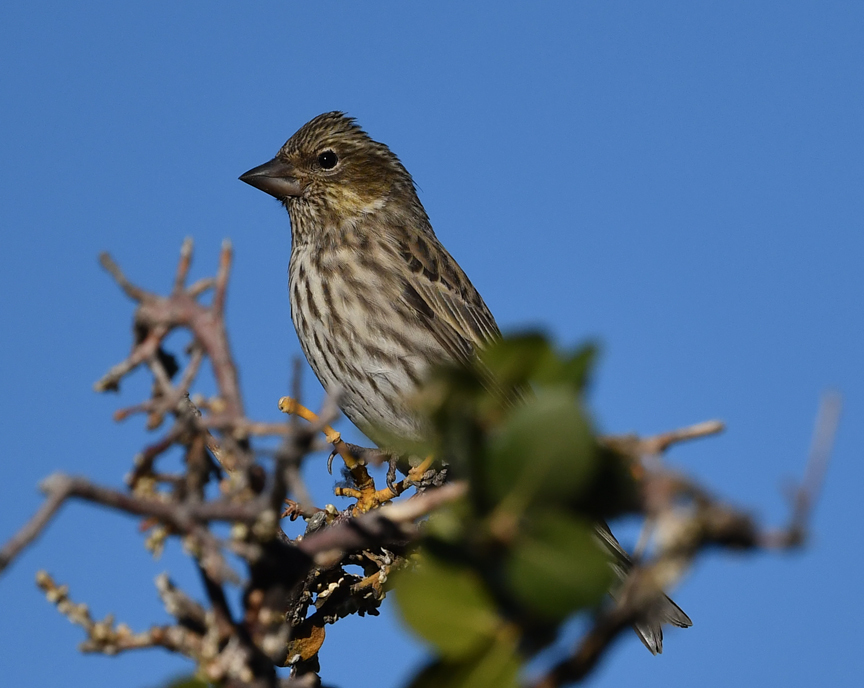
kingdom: Animalia
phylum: Chordata
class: Aves
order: Passeriformes
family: Fringillidae
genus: Haemorhous
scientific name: Haemorhous cassinii
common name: Cassin's finch
